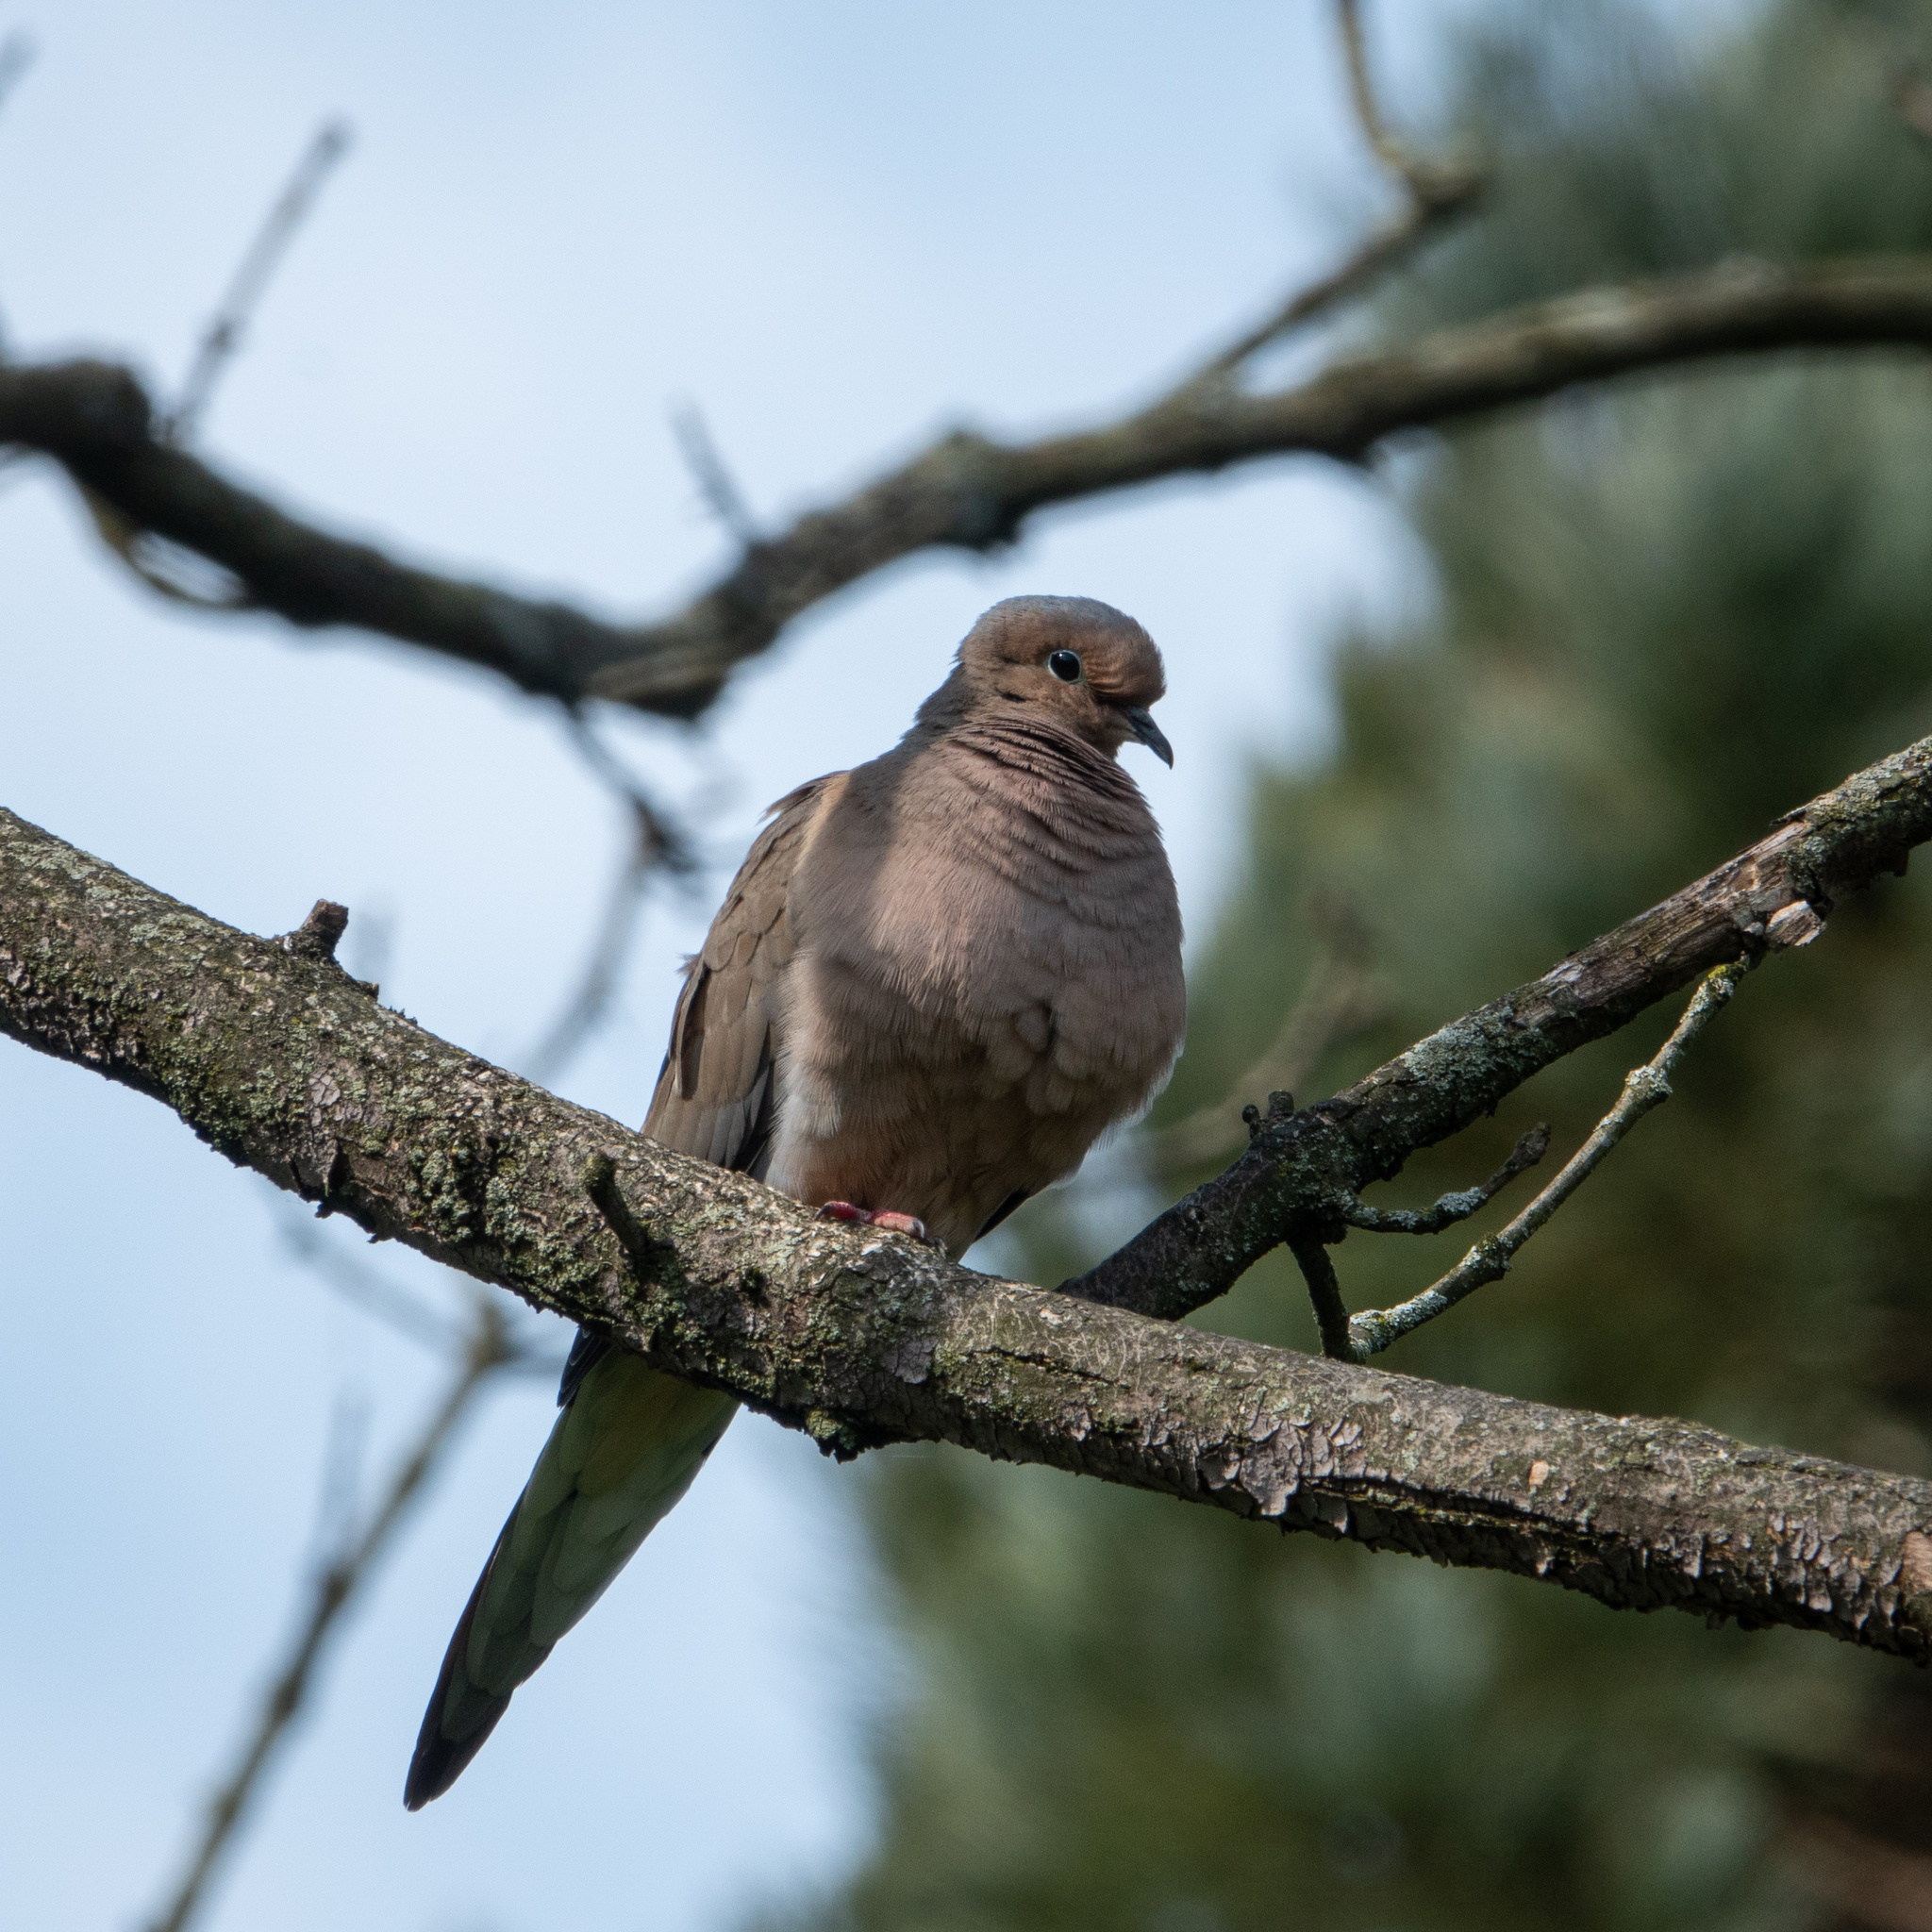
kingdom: Animalia
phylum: Chordata
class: Aves
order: Columbiformes
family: Columbidae
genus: Zenaida
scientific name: Zenaida macroura
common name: Mourning dove
